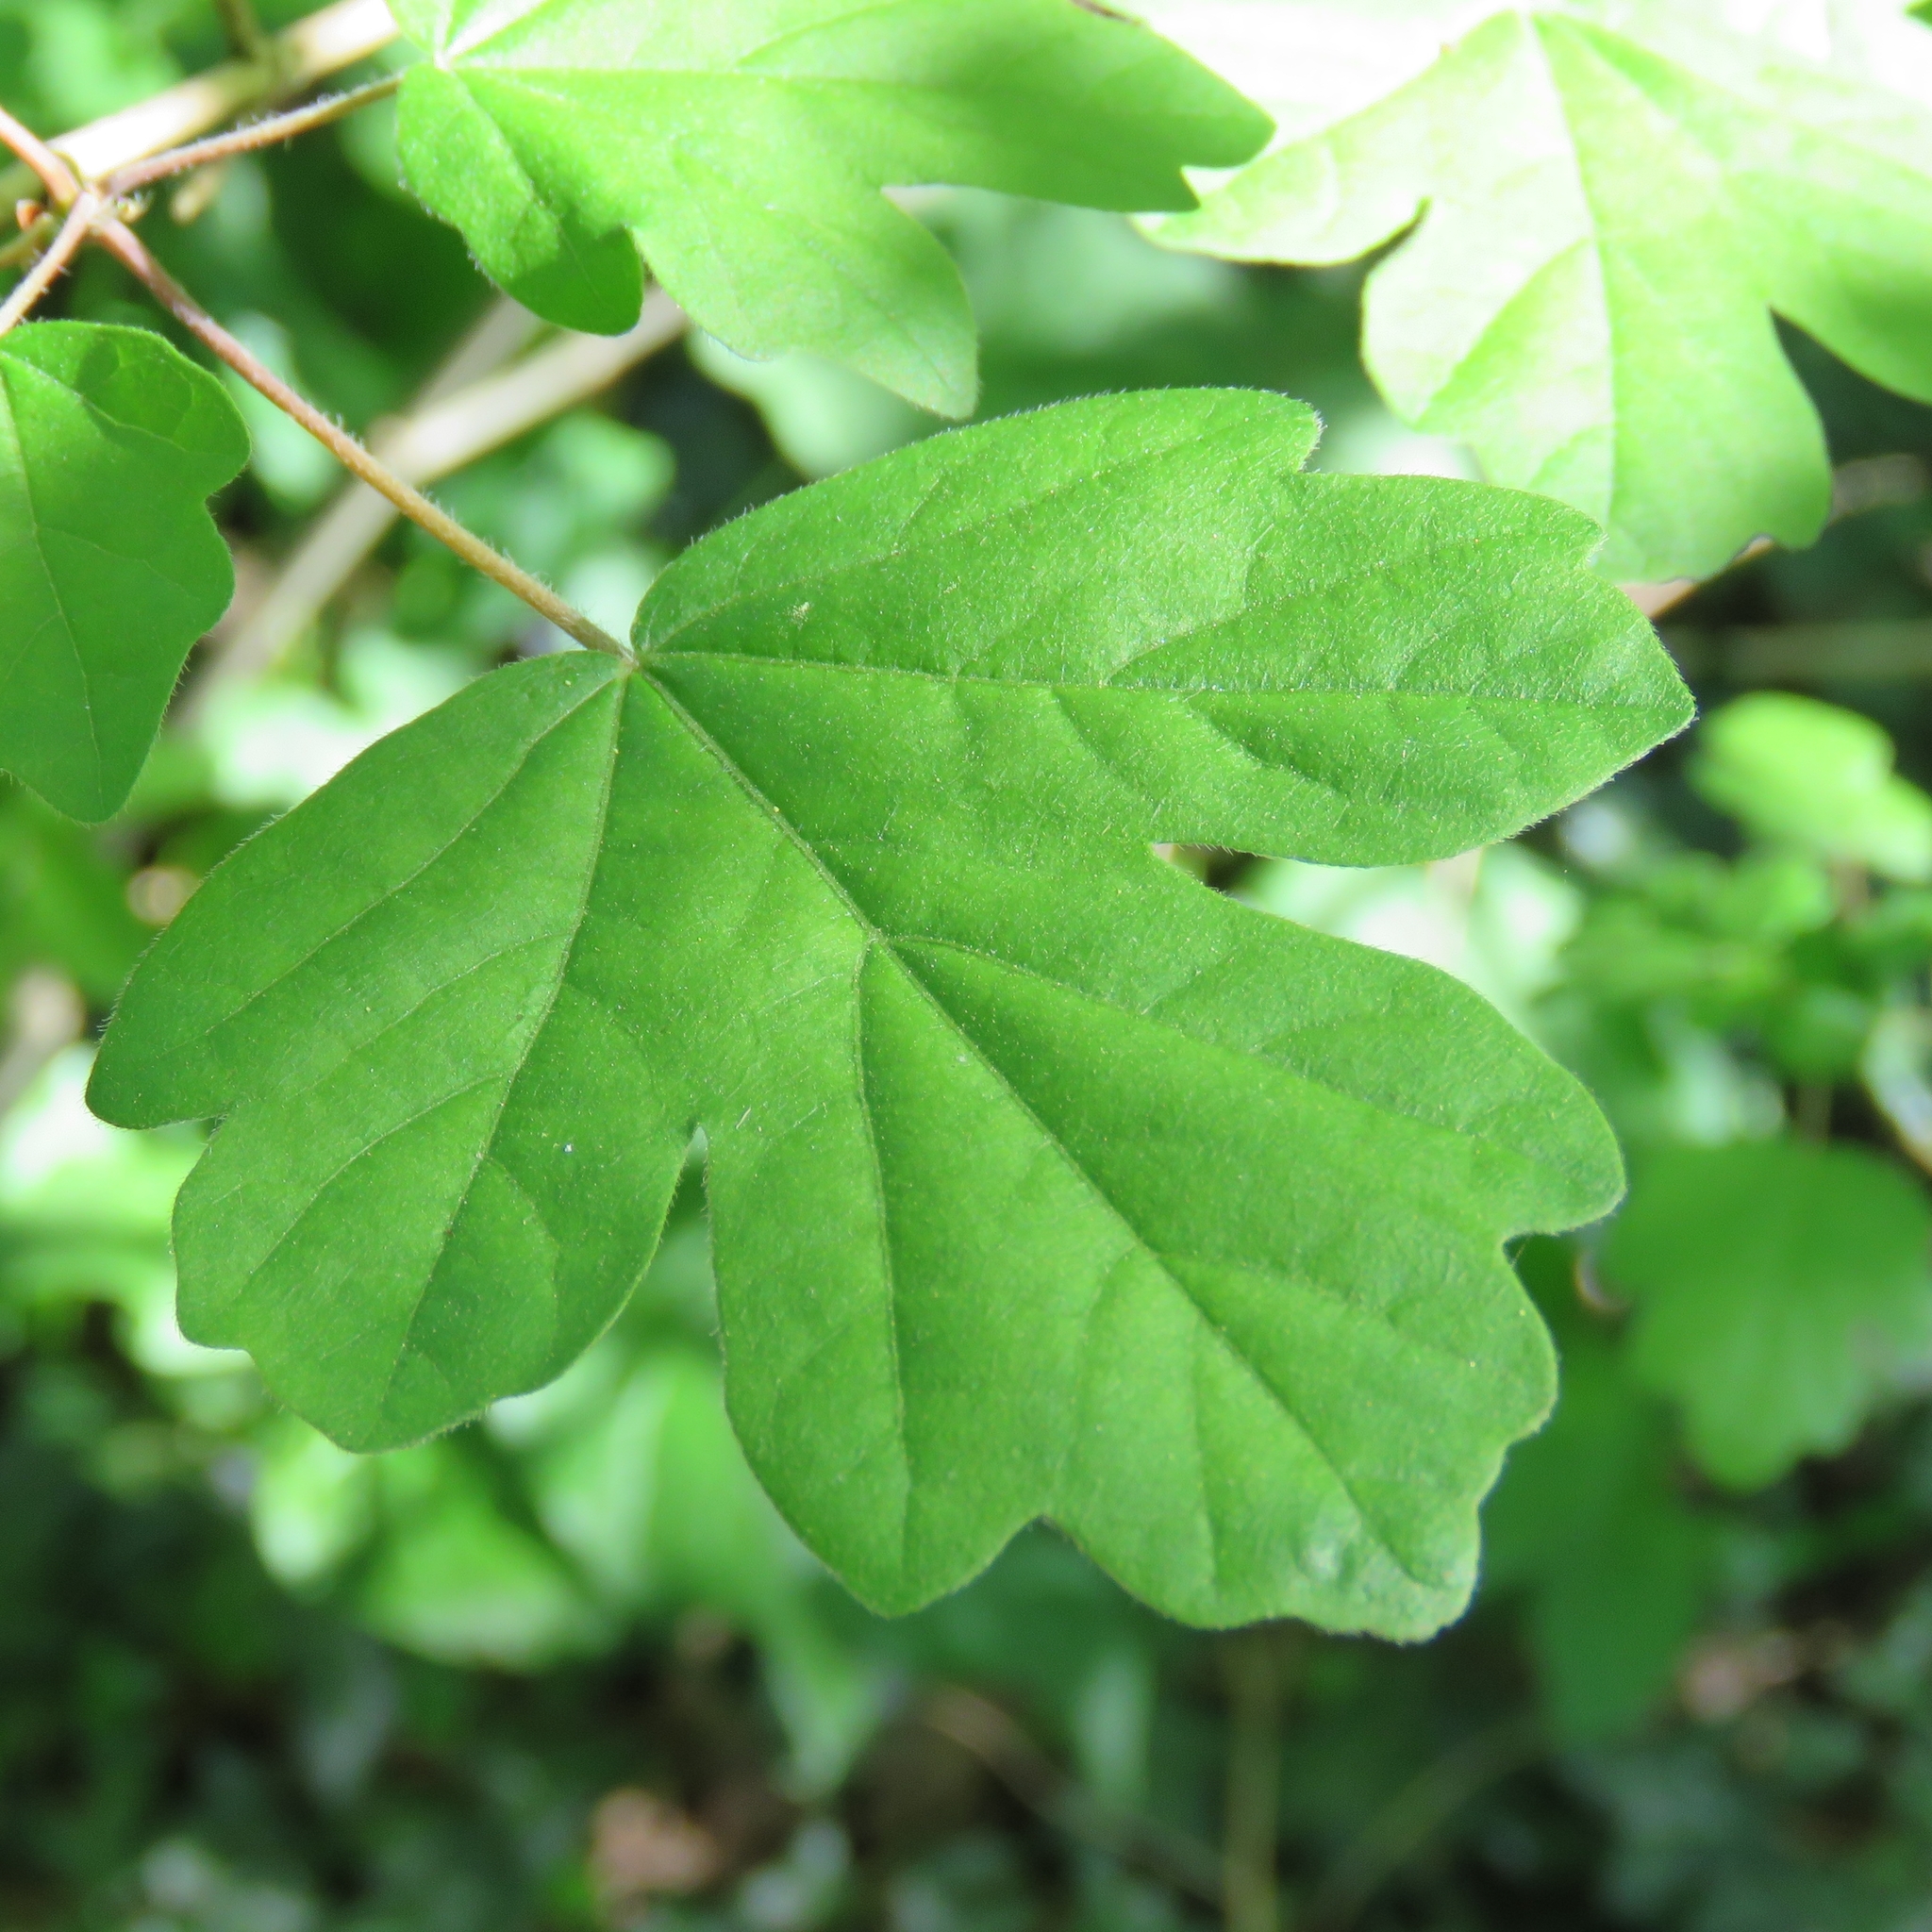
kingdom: Plantae
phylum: Tracheophyta
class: Magnoliopsida
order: Sapindales
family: Sapindaceae
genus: Acer
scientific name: Acer campestre
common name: Field maple
